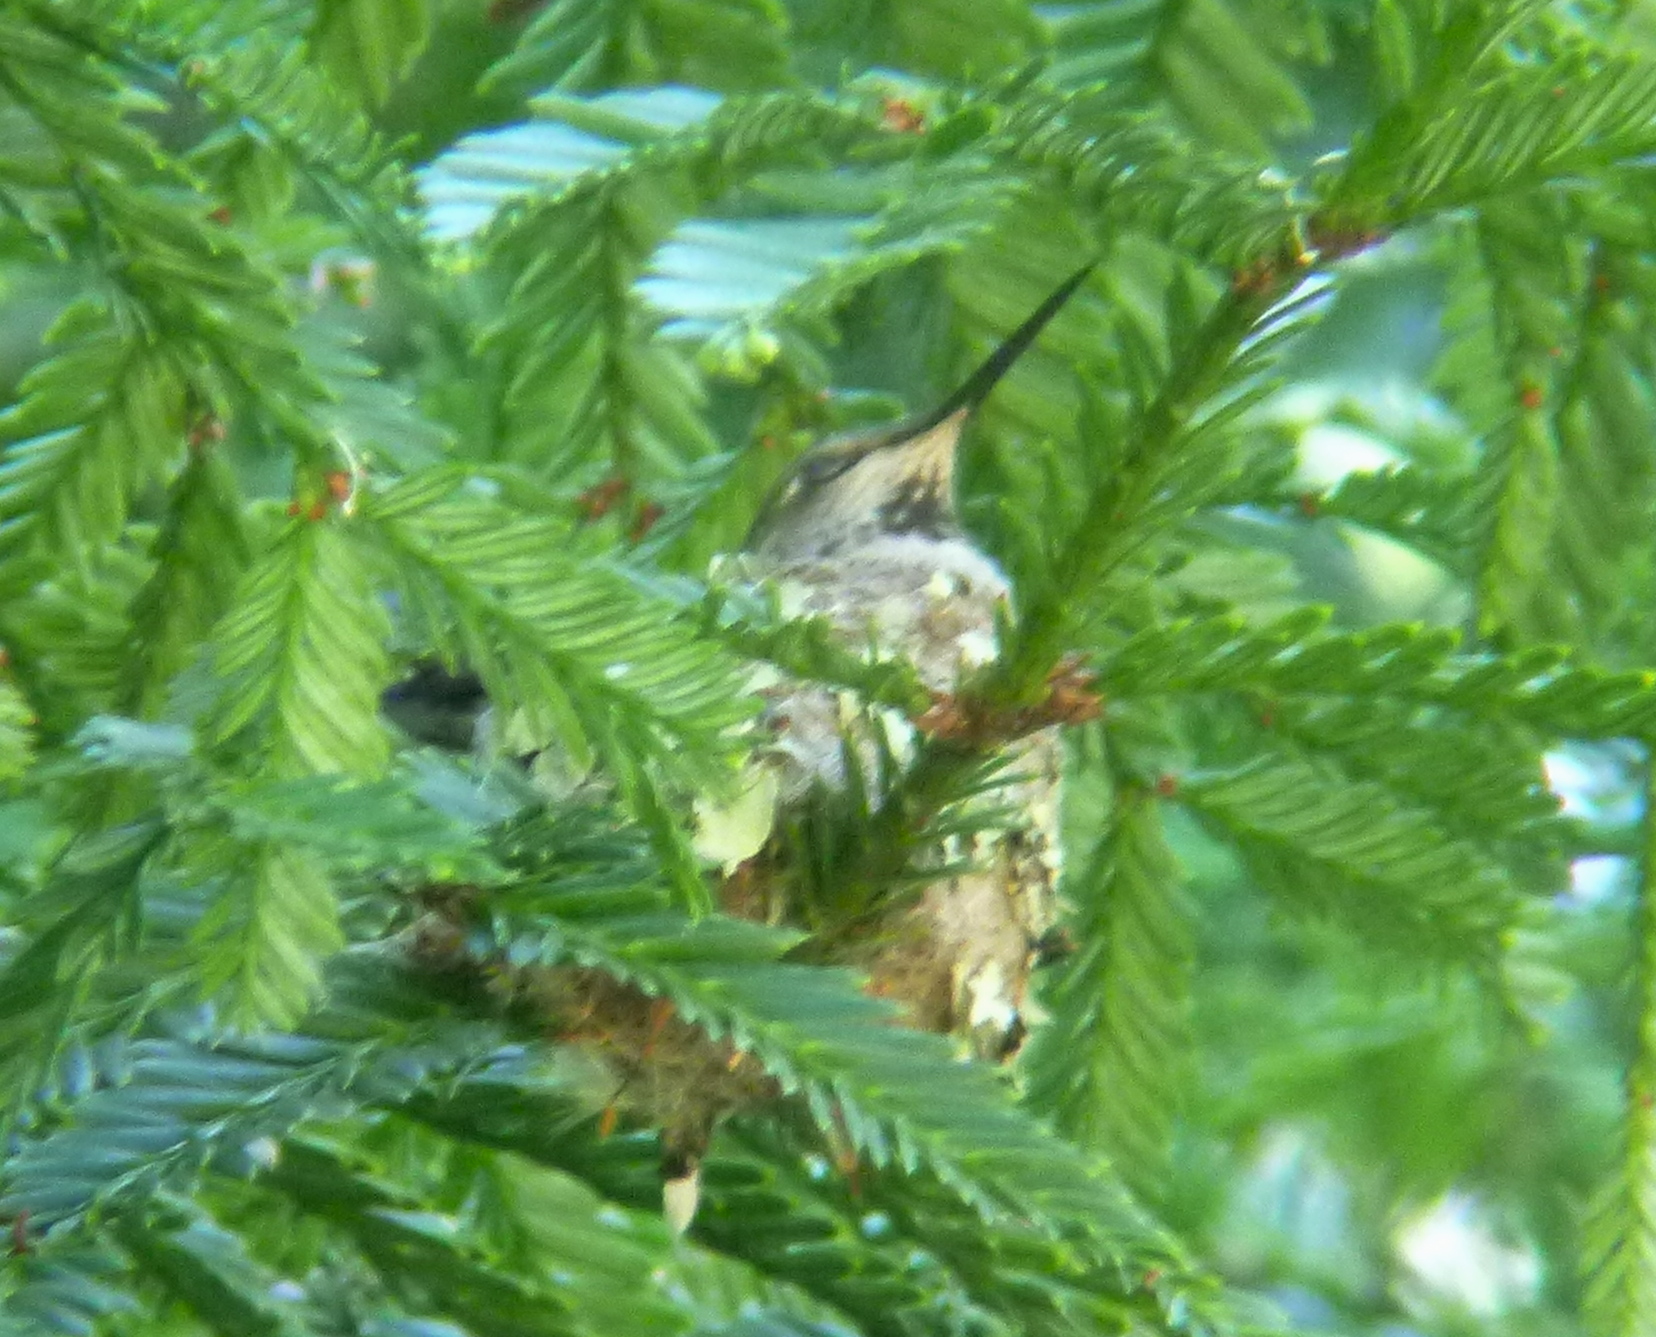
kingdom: Animalia
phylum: Chordata
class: Aves
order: Apodiformes
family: Trochilidae
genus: Selasphorus
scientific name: Selasphorus sasin
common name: Allen's hummingbird
